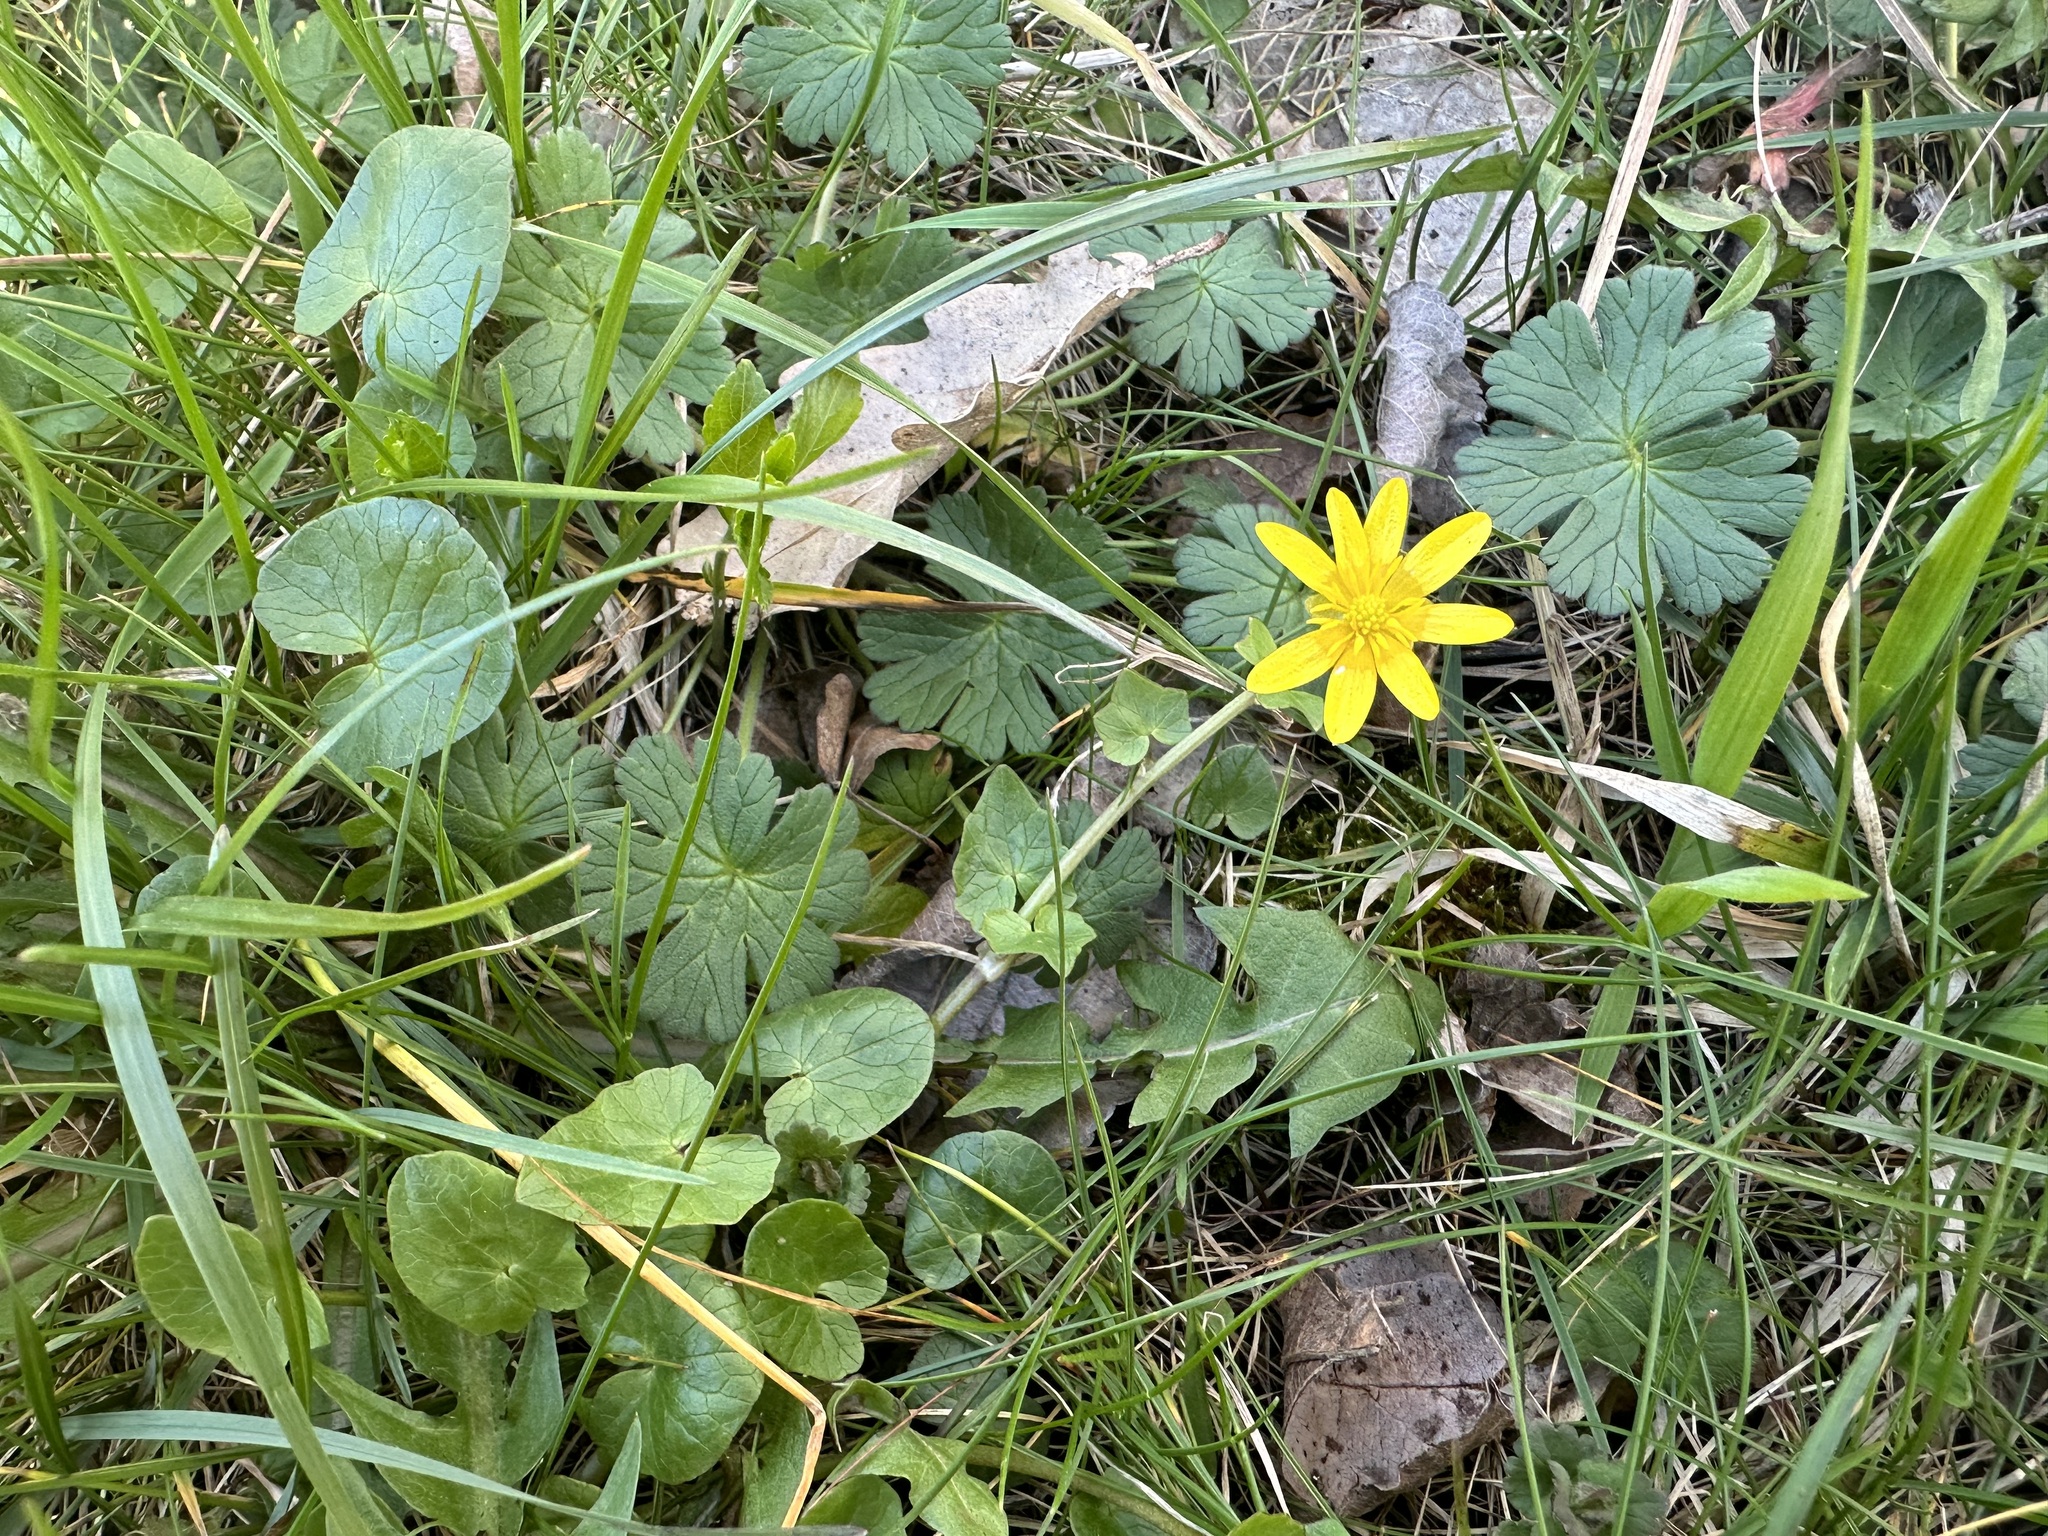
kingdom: Plantae
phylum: Tracheophyta
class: Magnoliopsida
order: Ranunculales
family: Ranunculaceae
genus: Ficaria
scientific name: Ficaria verna
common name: Lesser celandine
